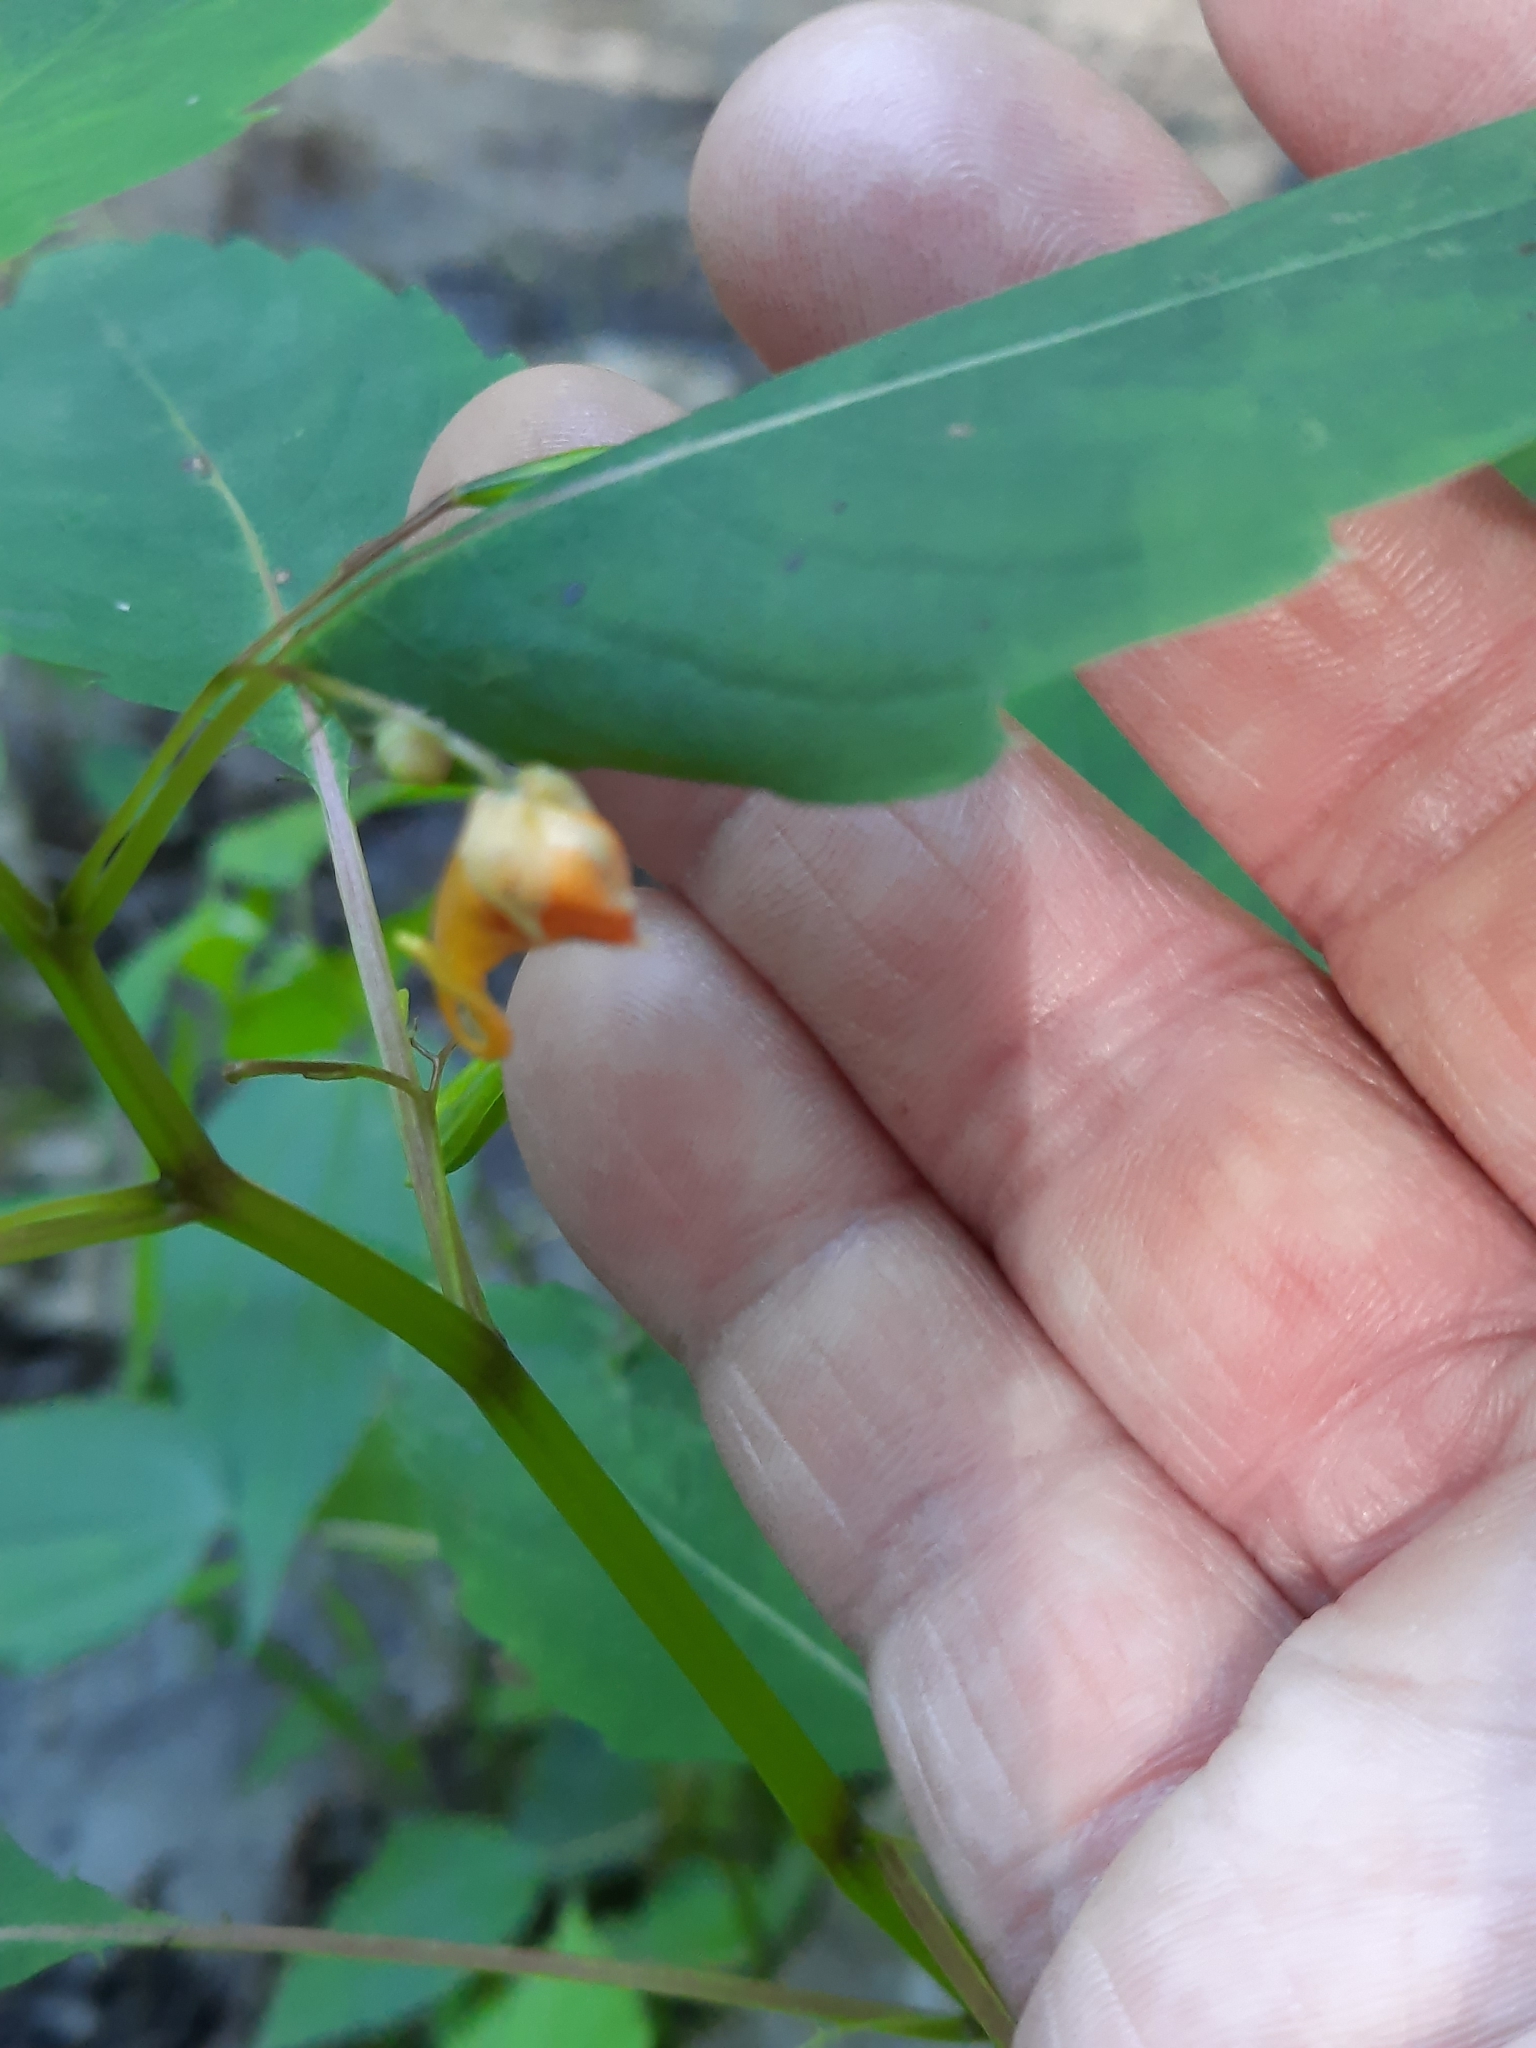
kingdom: Plantae
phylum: Tracheophyta
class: Magnoliopsida
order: Ericales
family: Balsaminaceae
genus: Impatiens
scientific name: Impatiens capensis
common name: Orange balsam
